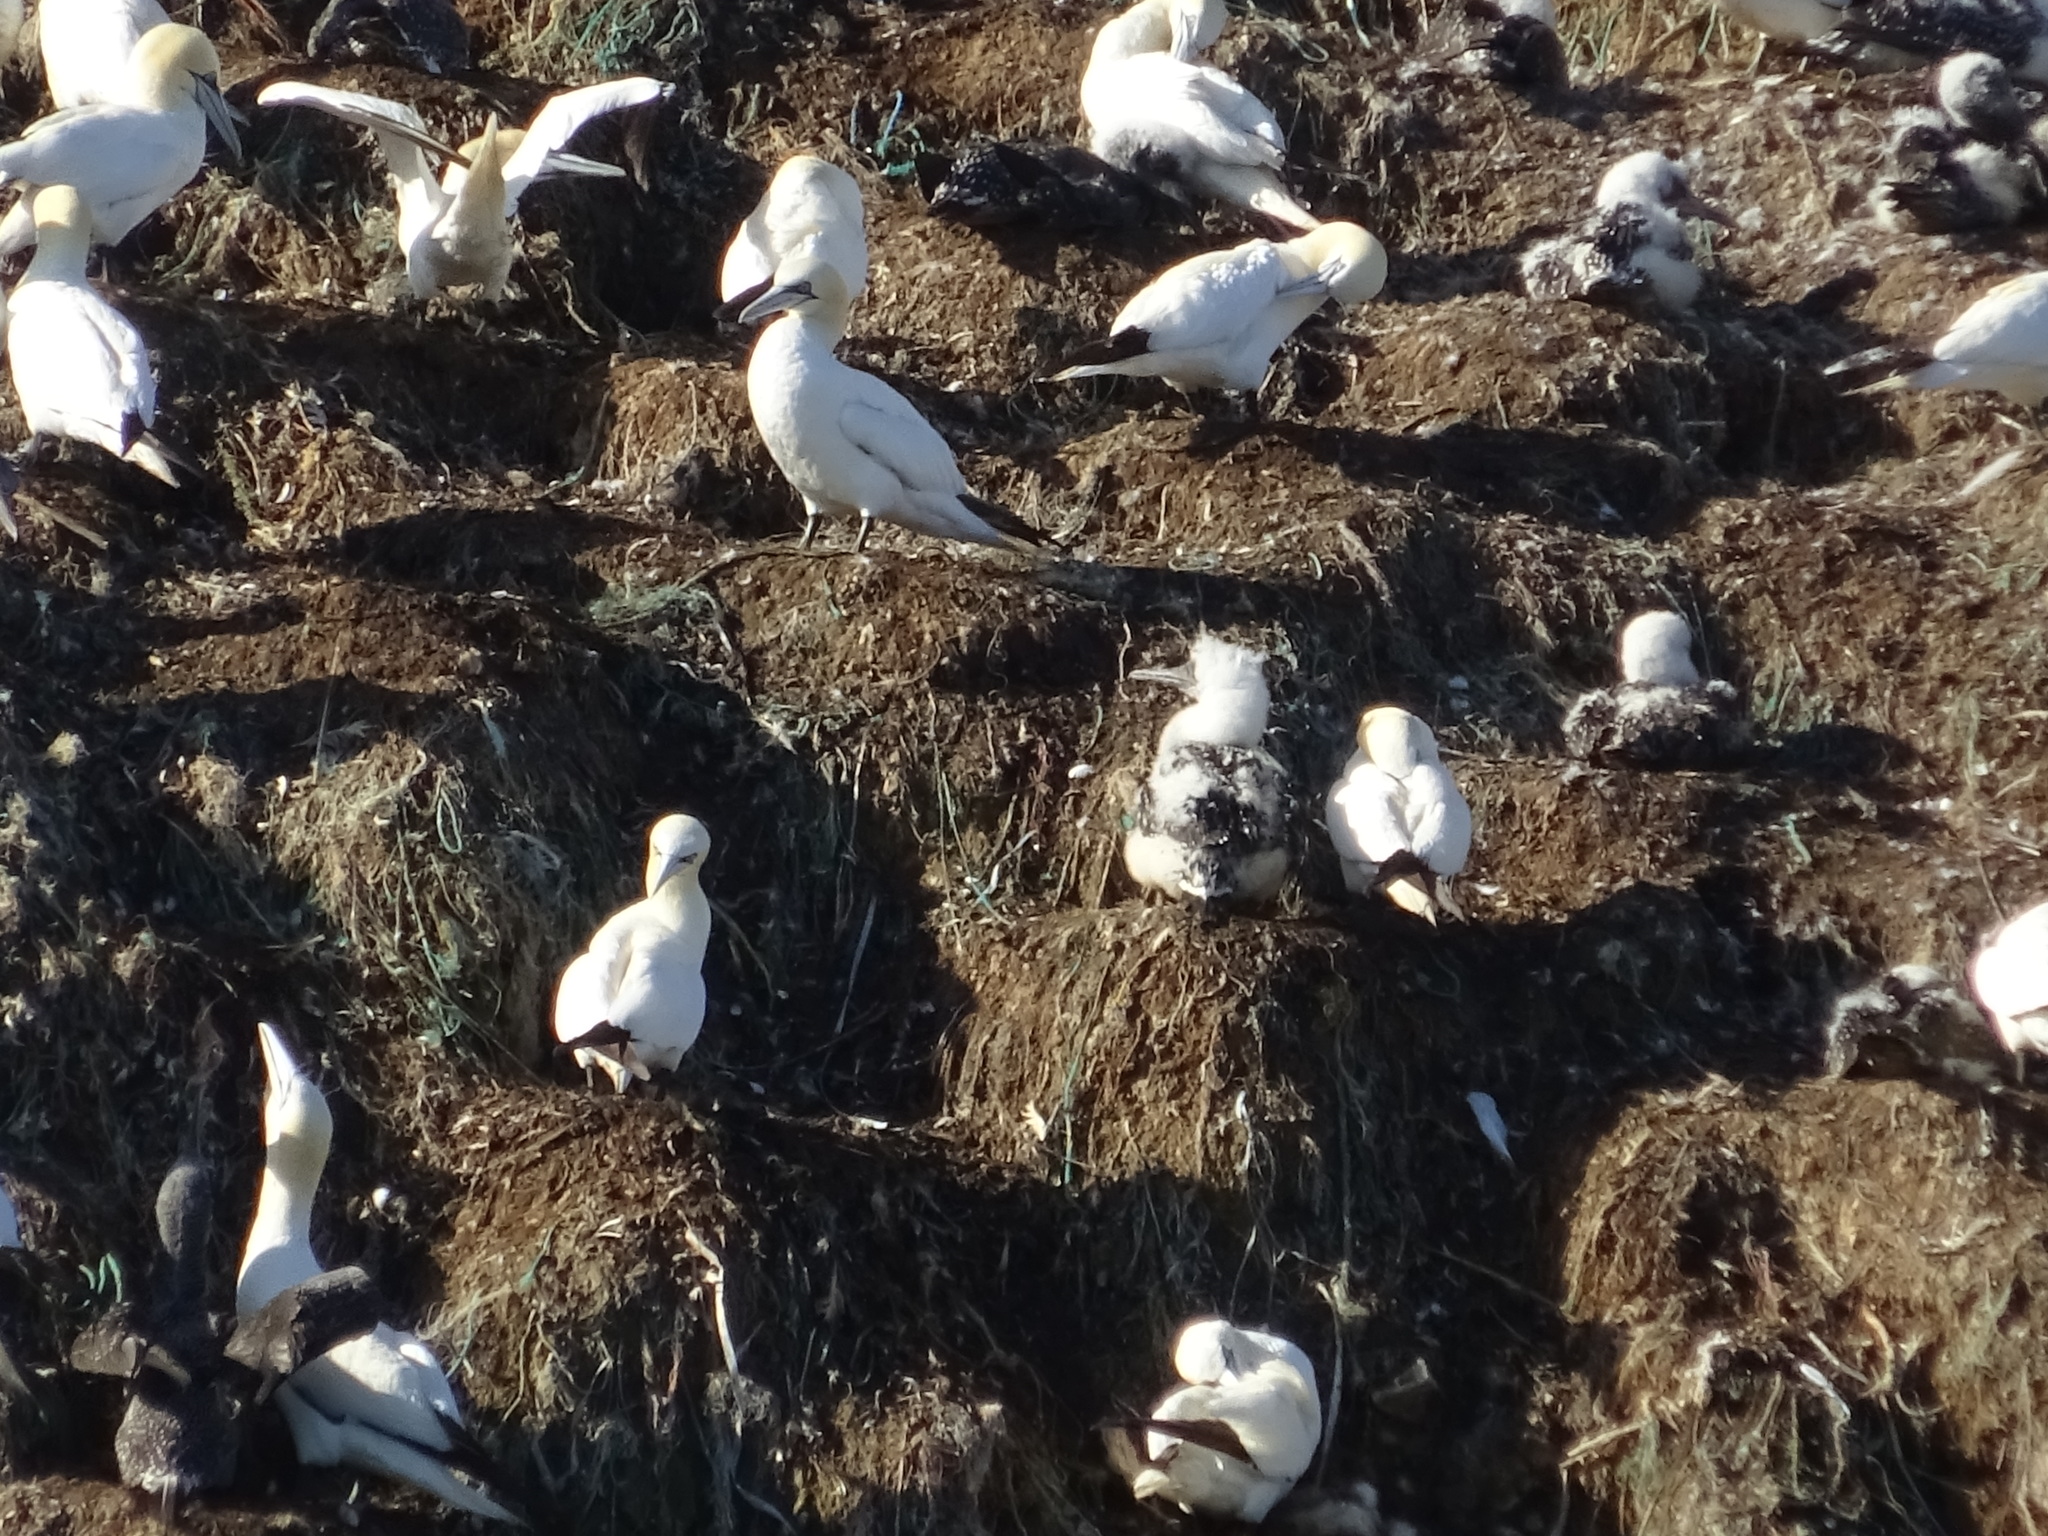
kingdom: Animalia
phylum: Chordata
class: Aves
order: Suliformes
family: Sulidae
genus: Morus
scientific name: Morus bassanus
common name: Northern gannet
